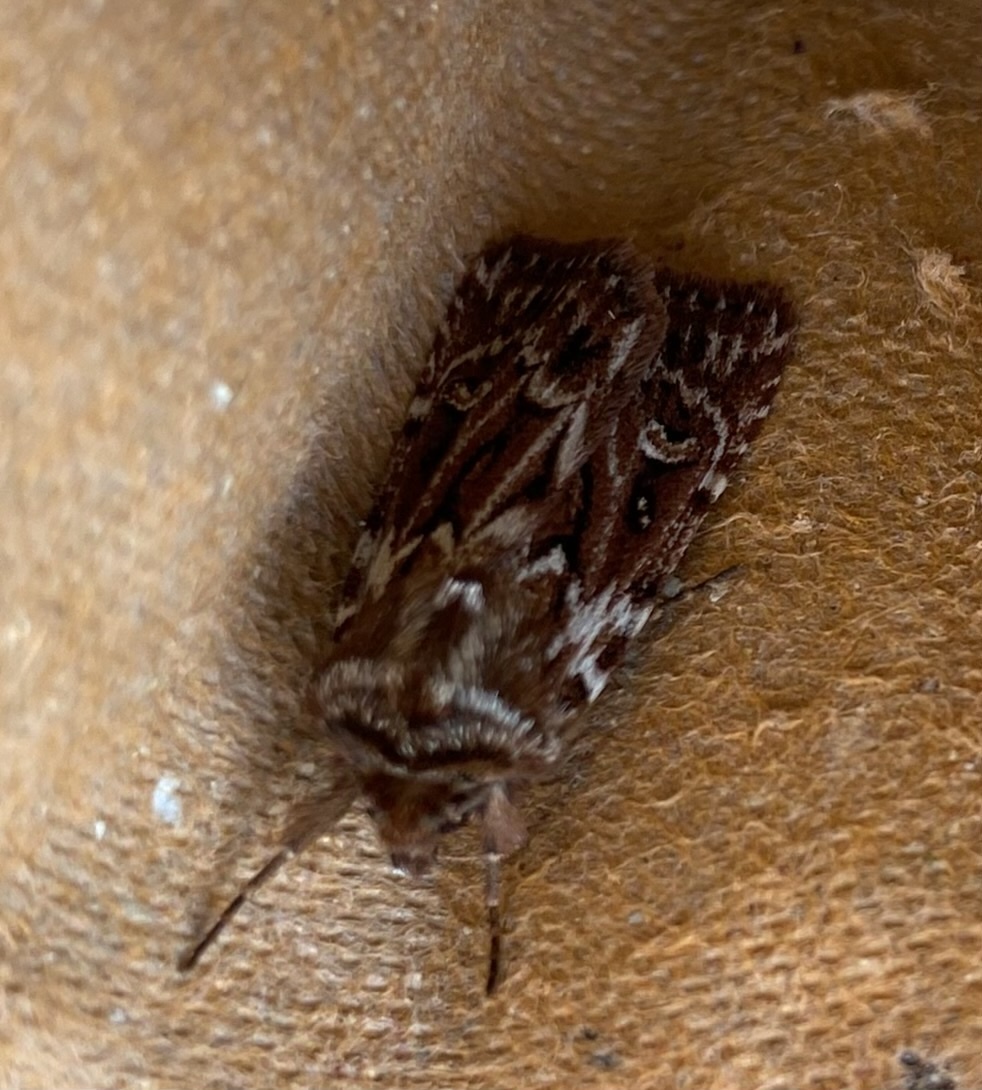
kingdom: Animalia
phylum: Arthropoda
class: Insecta
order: Lepidoptera
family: Noctuidae
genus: Lycophotia
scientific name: Lycophotia porphyrea
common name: True lover's knot
